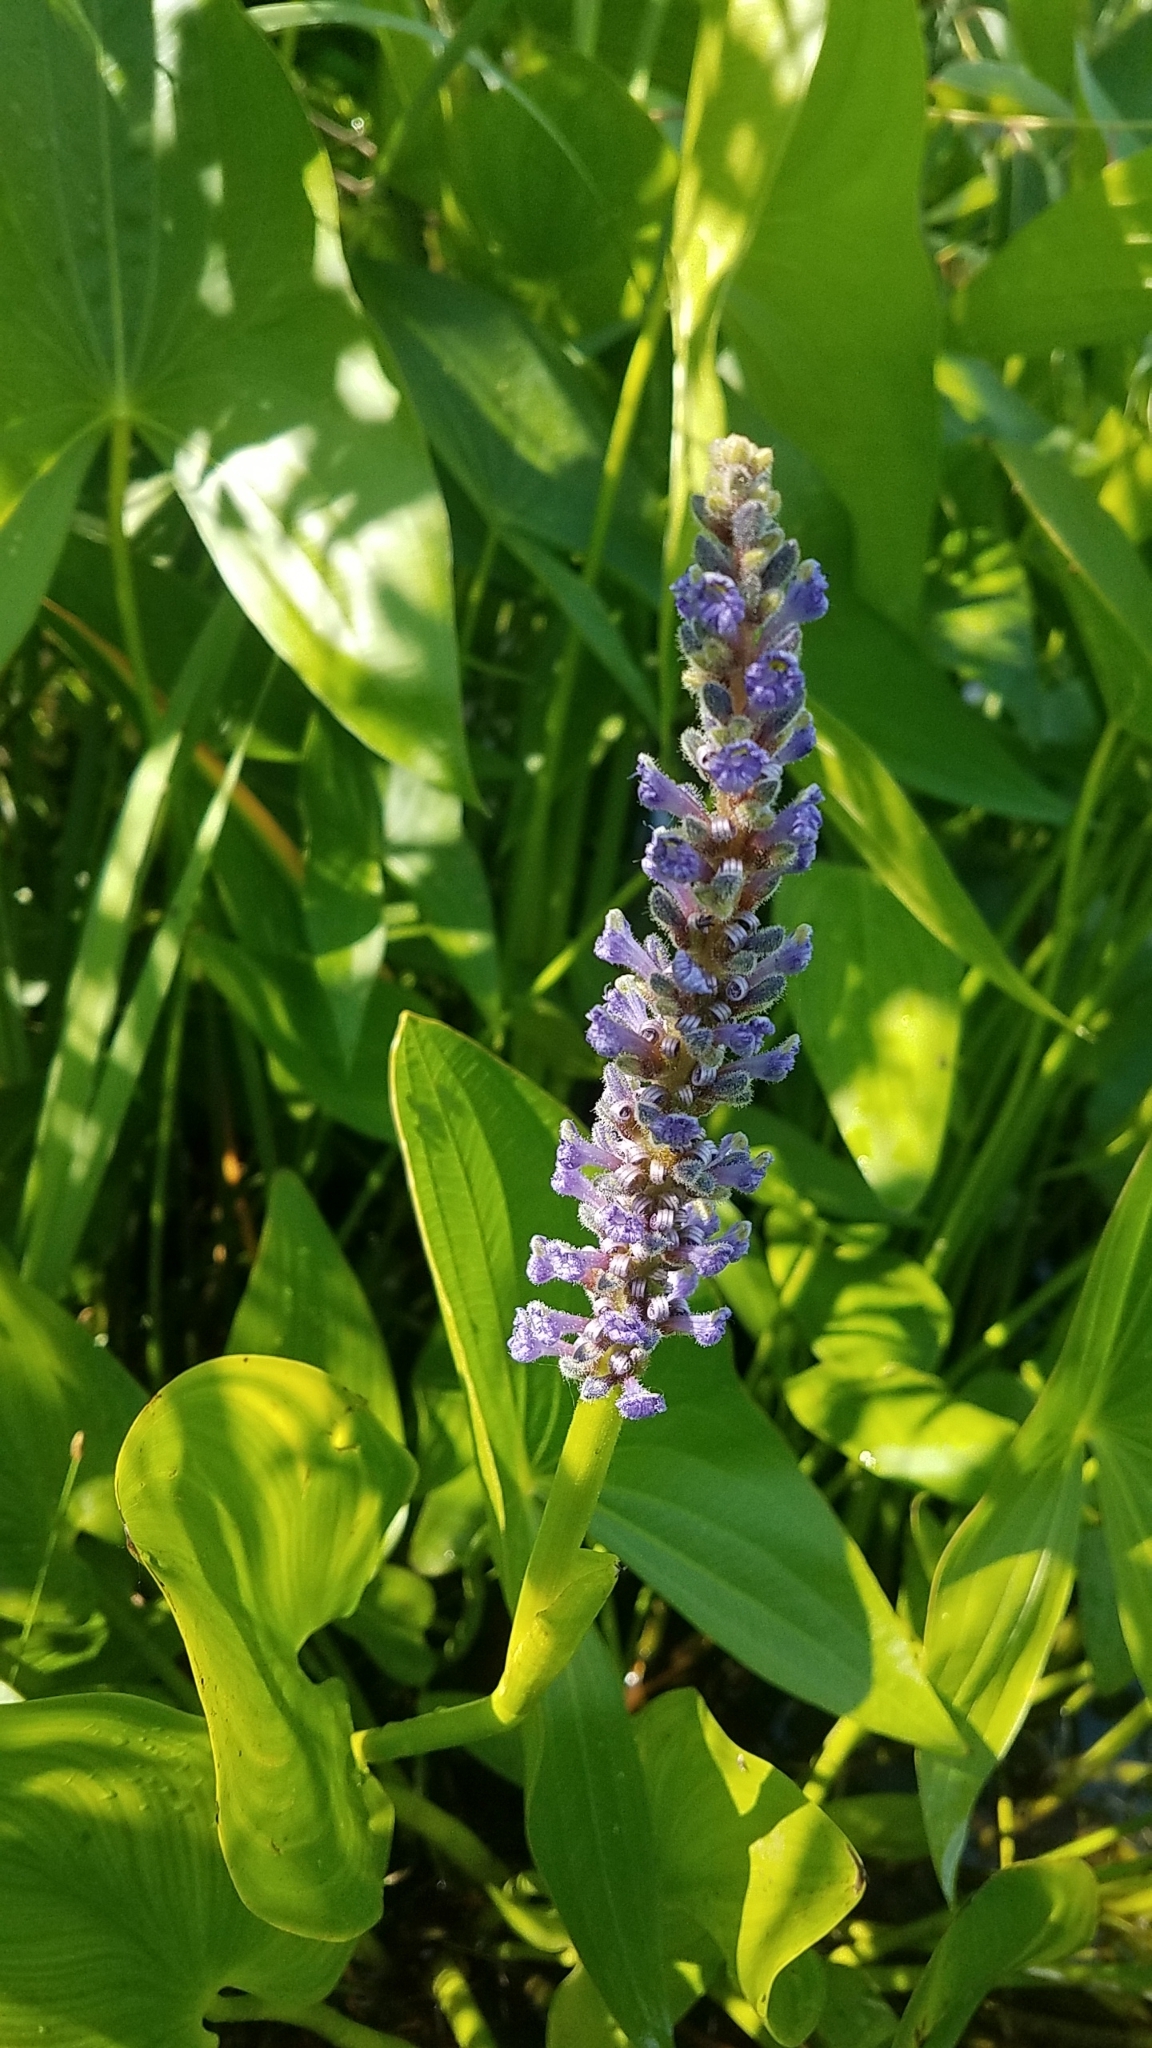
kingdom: Plantae
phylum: Tracheophyta
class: Liliopsida
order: Commelinales
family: Pontederiaceae
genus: Pontederia
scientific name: Pontederia cordata
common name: Pickerelweed
